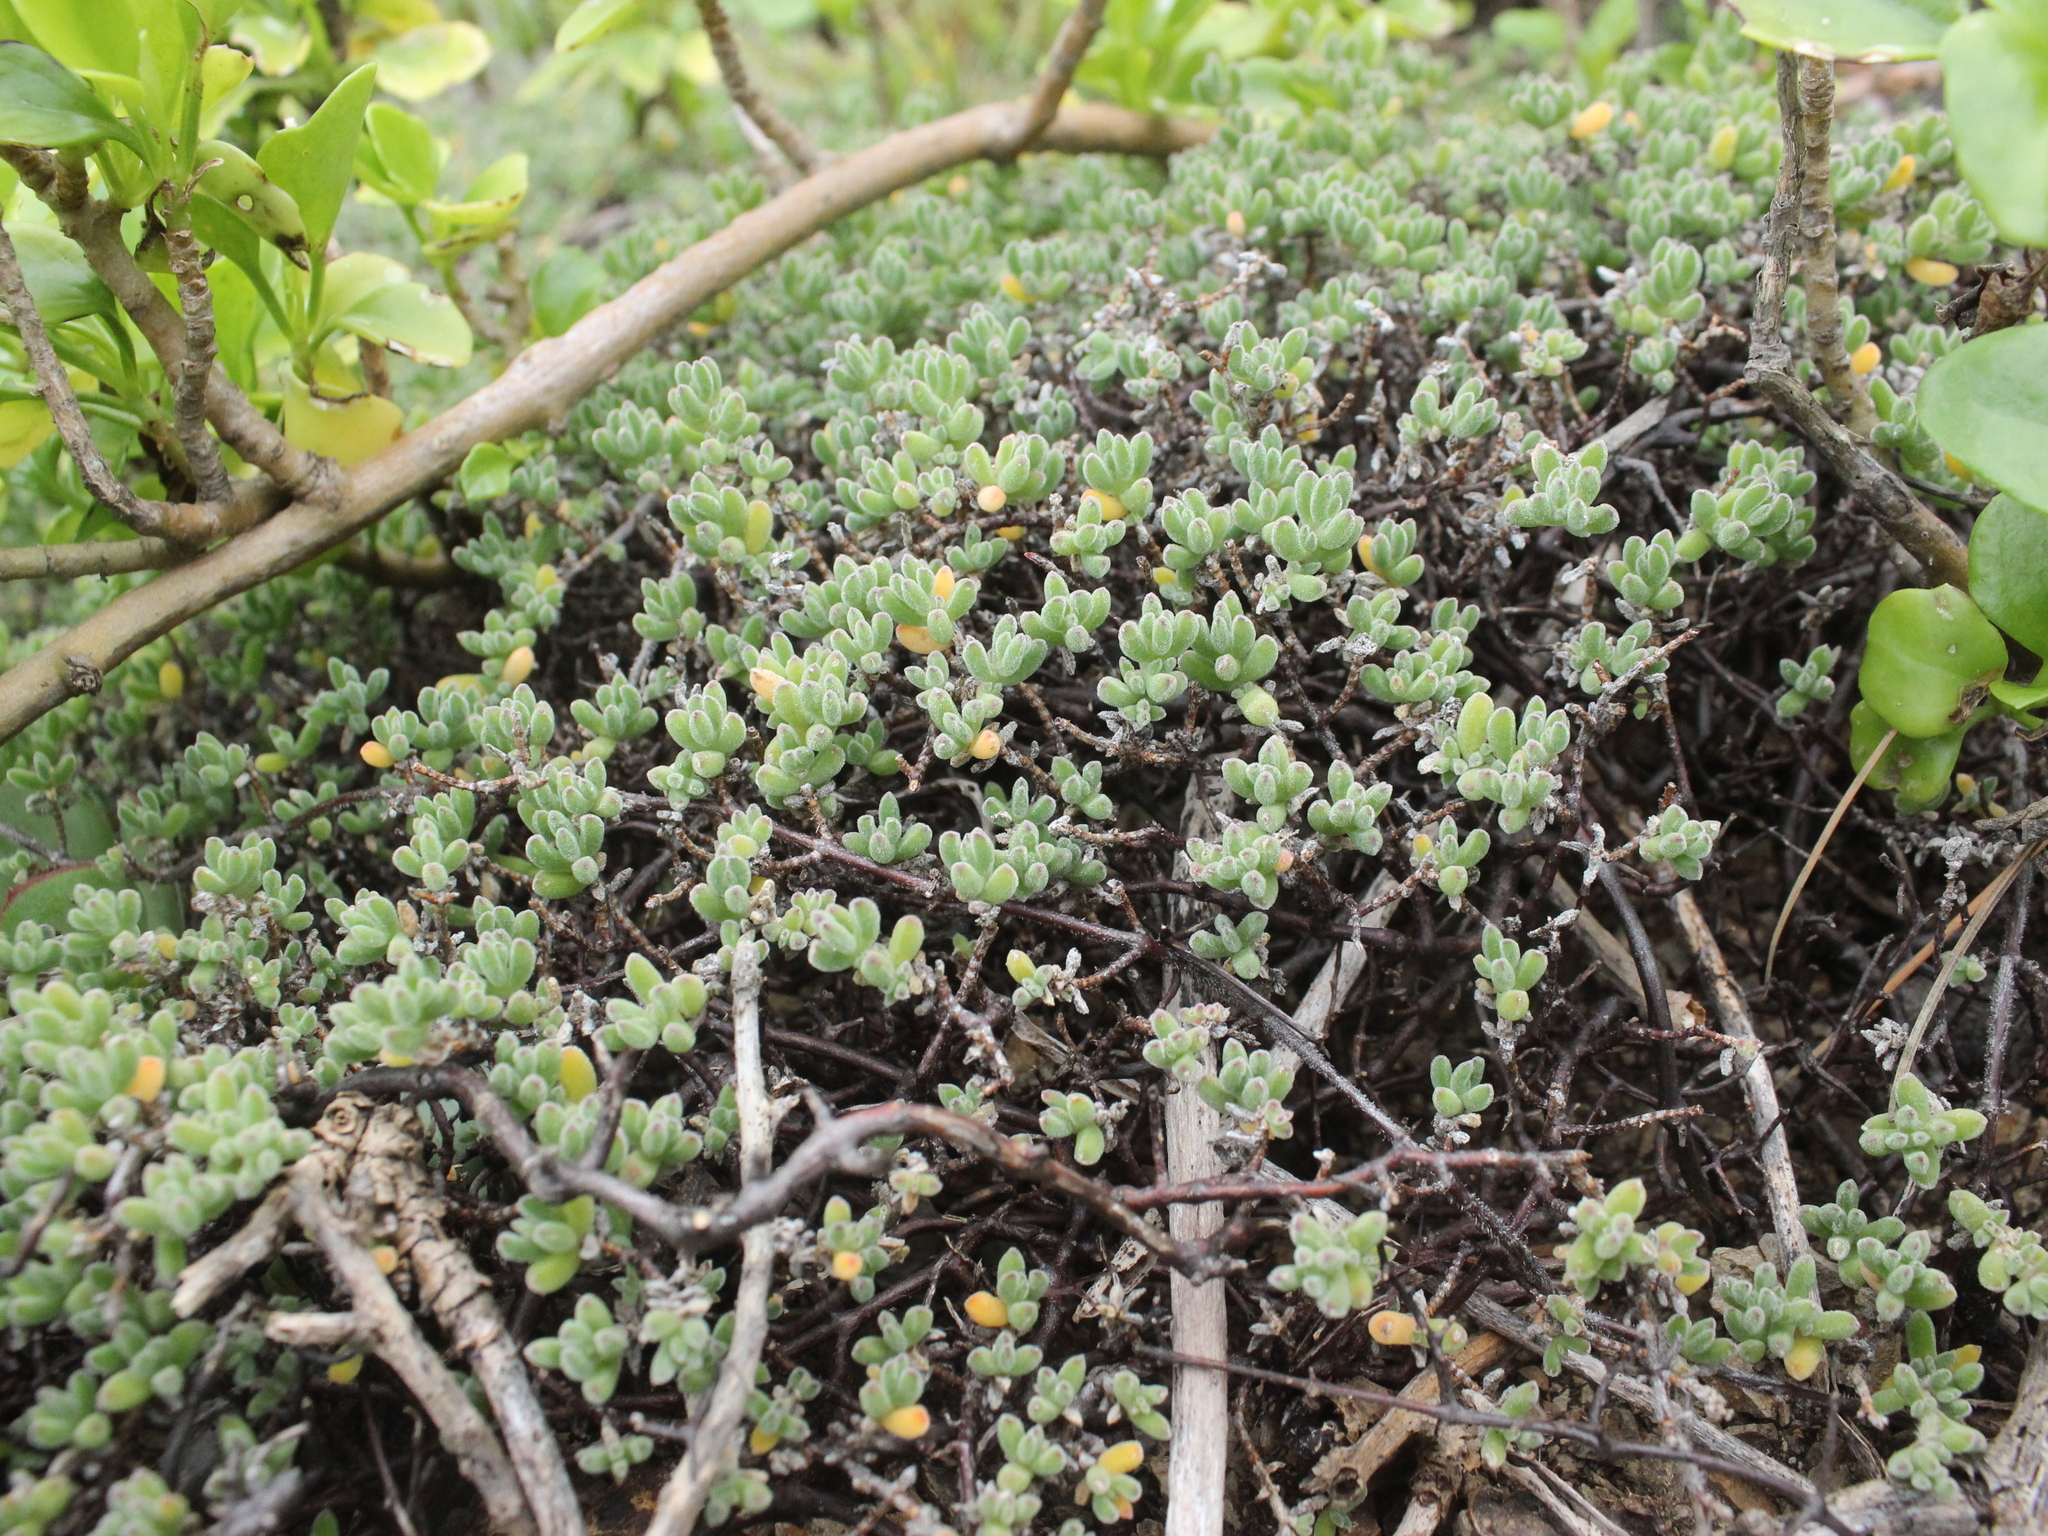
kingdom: Plantae
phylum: Tracheophyta
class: Magnoliopsida
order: Caryophyllales
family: Aizoaceae
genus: Drosanthemum
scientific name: Drosanthemum floribundum
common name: Pale dewplant
